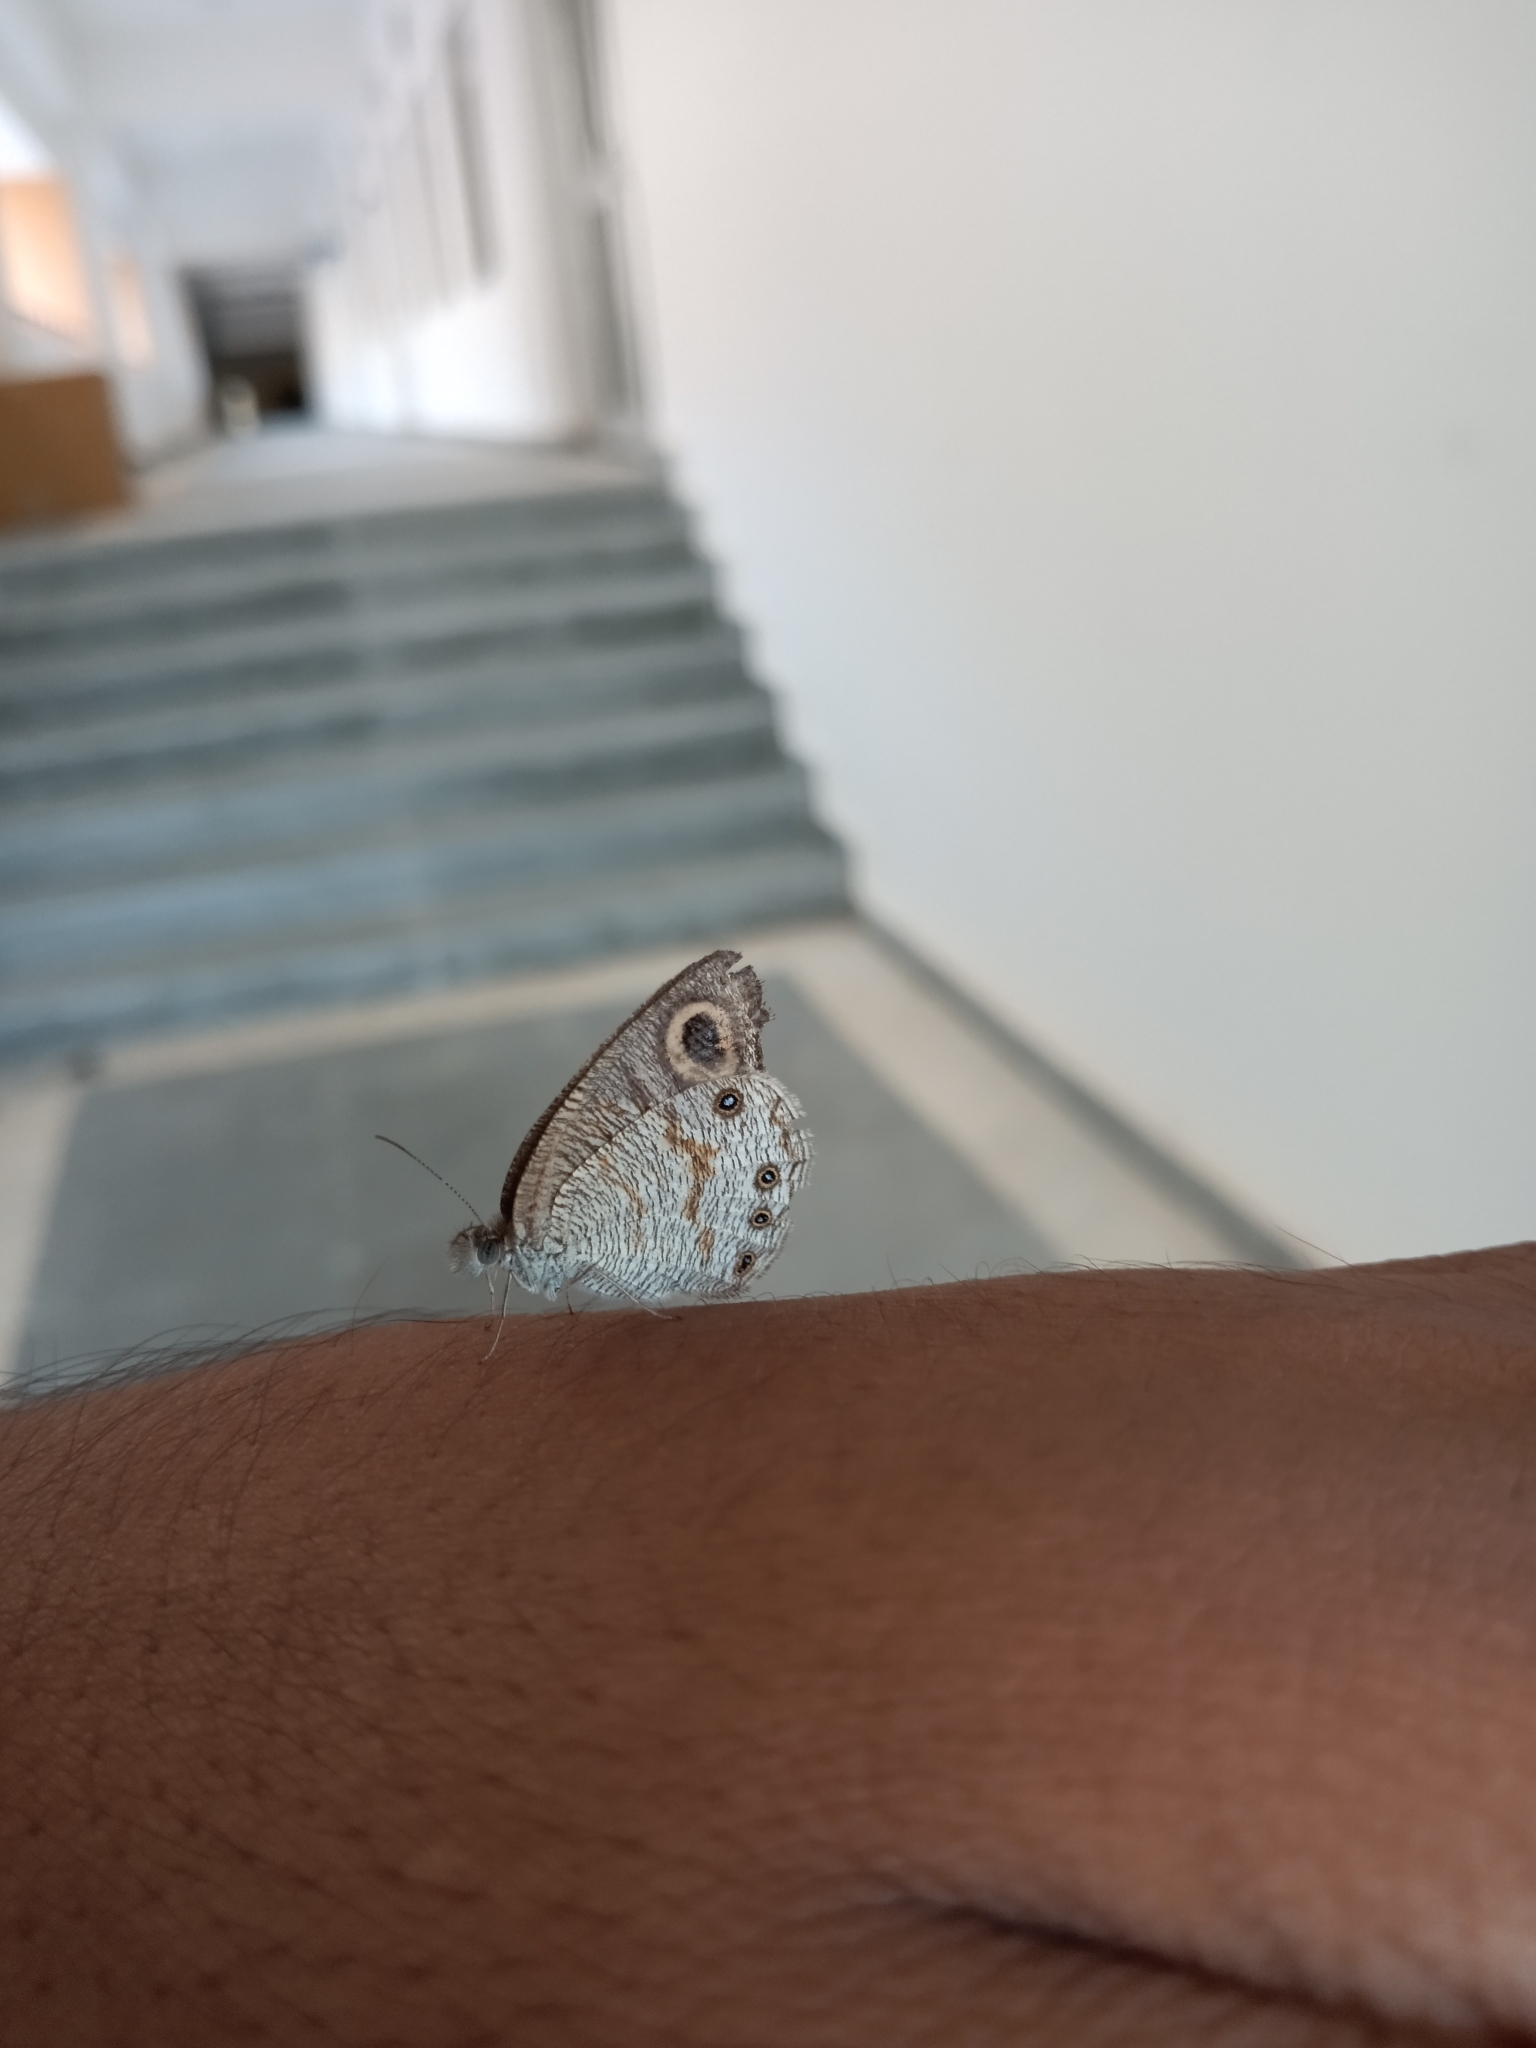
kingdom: Animalia
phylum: Arthropoda
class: Insecta
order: Lepidoptera
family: Nymphalidae
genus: Ypthima
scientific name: Ypthima huebneri
